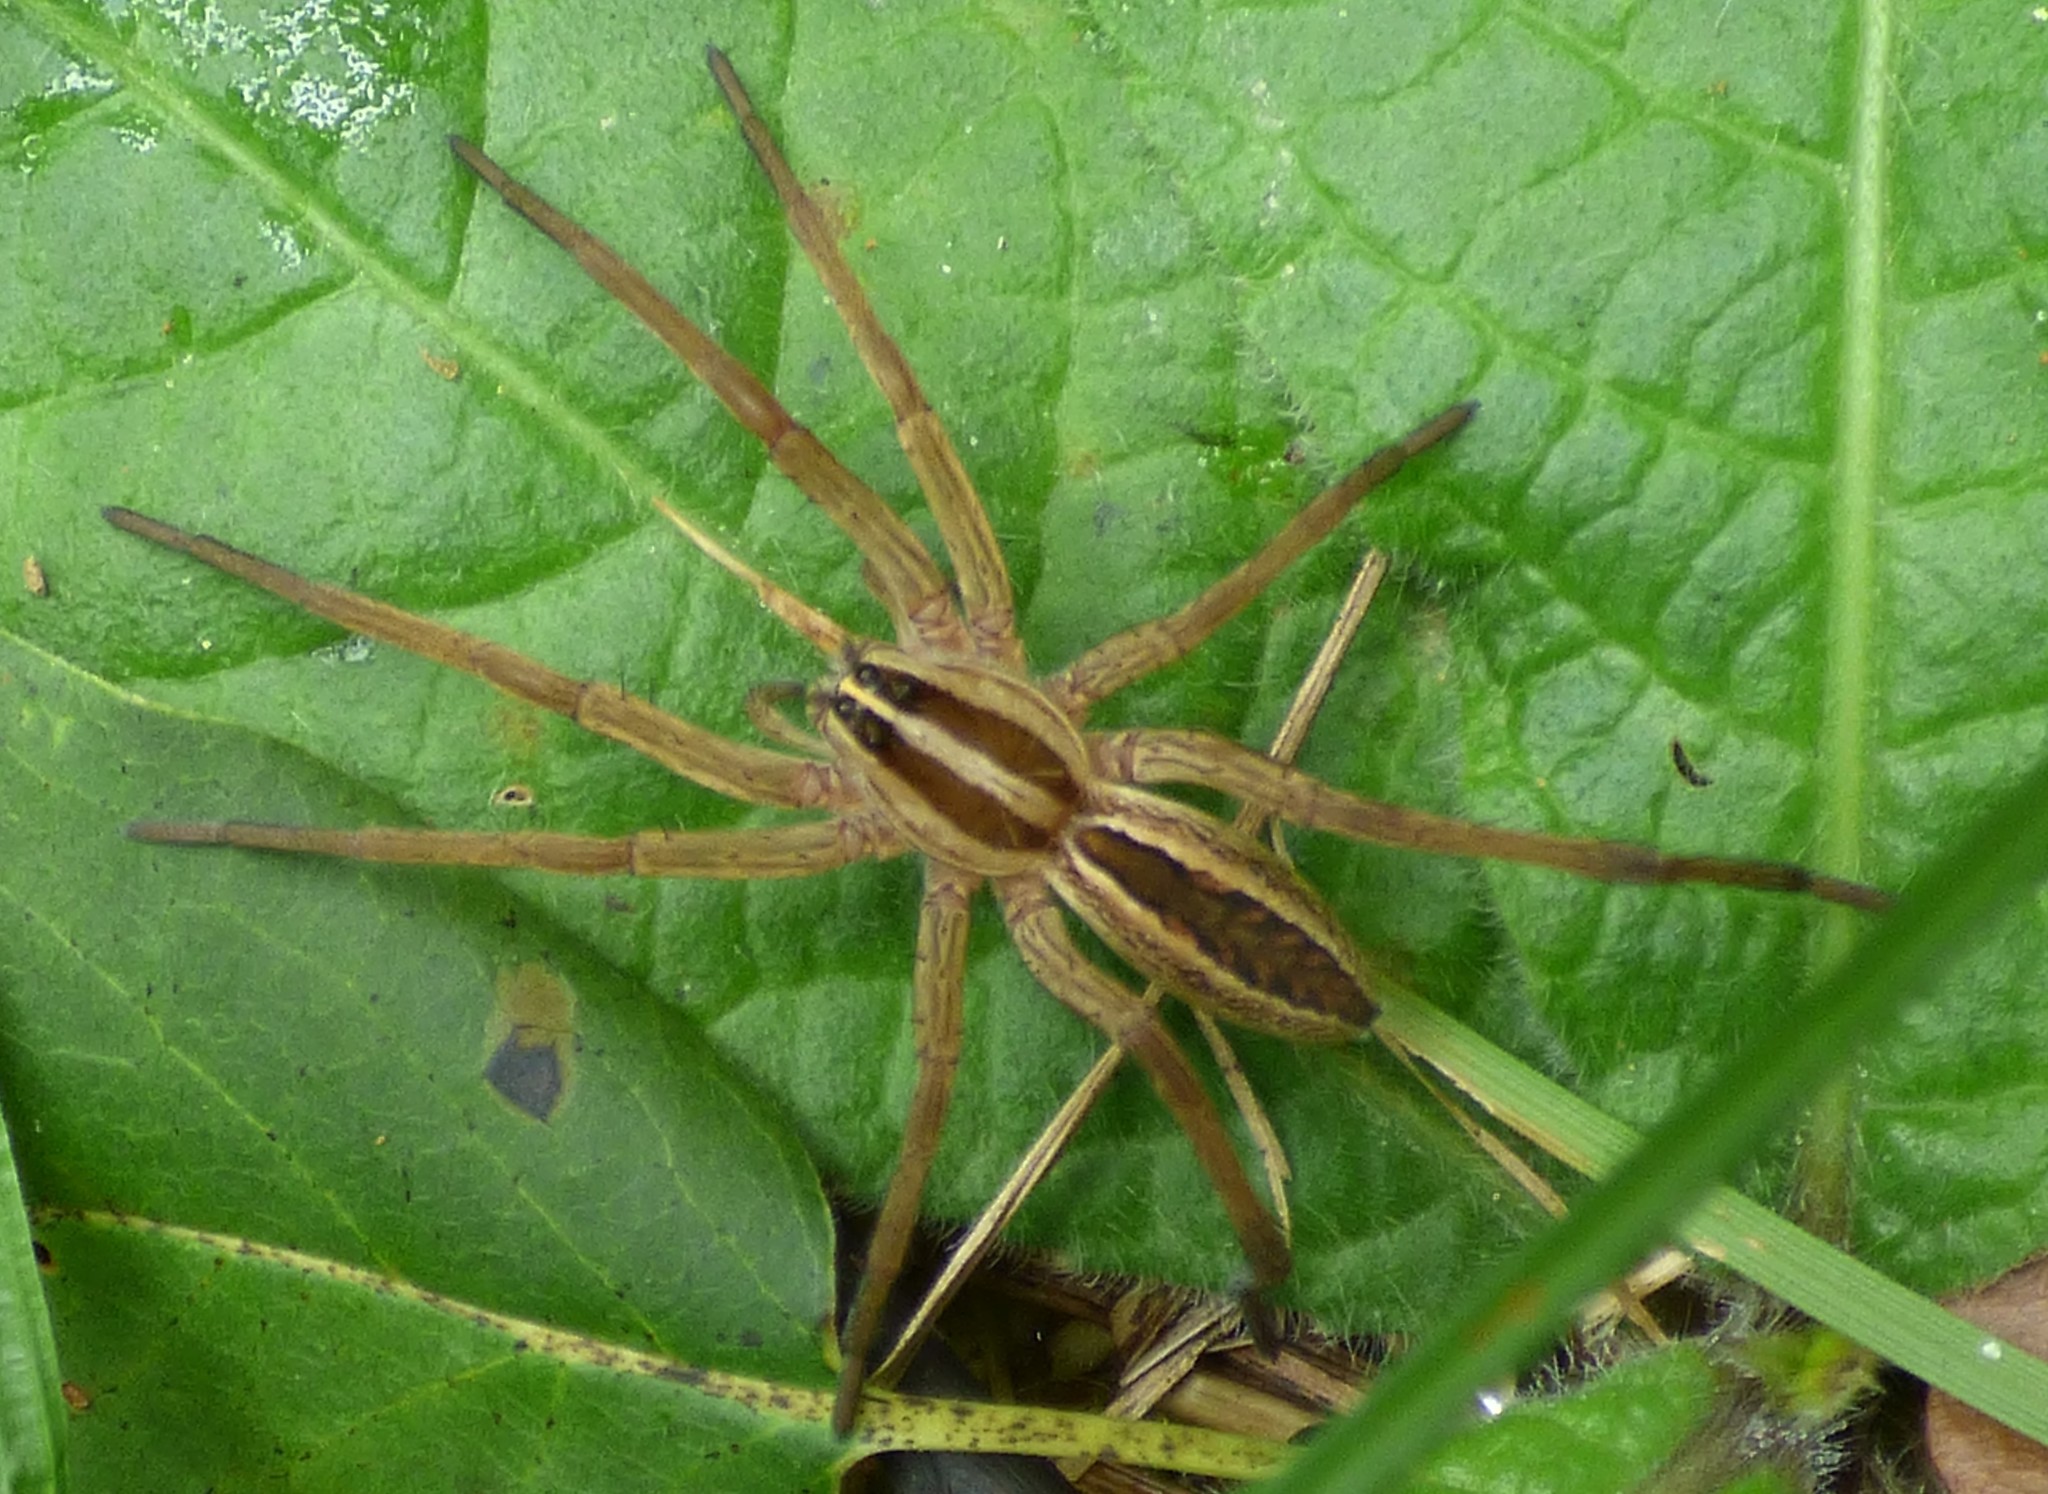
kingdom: Animalia
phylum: Arthropoda
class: Arachnida
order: Araneae
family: Lycosidae
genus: Rabidosa
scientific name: Rabidosa rabida
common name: Rabid wolf spider
